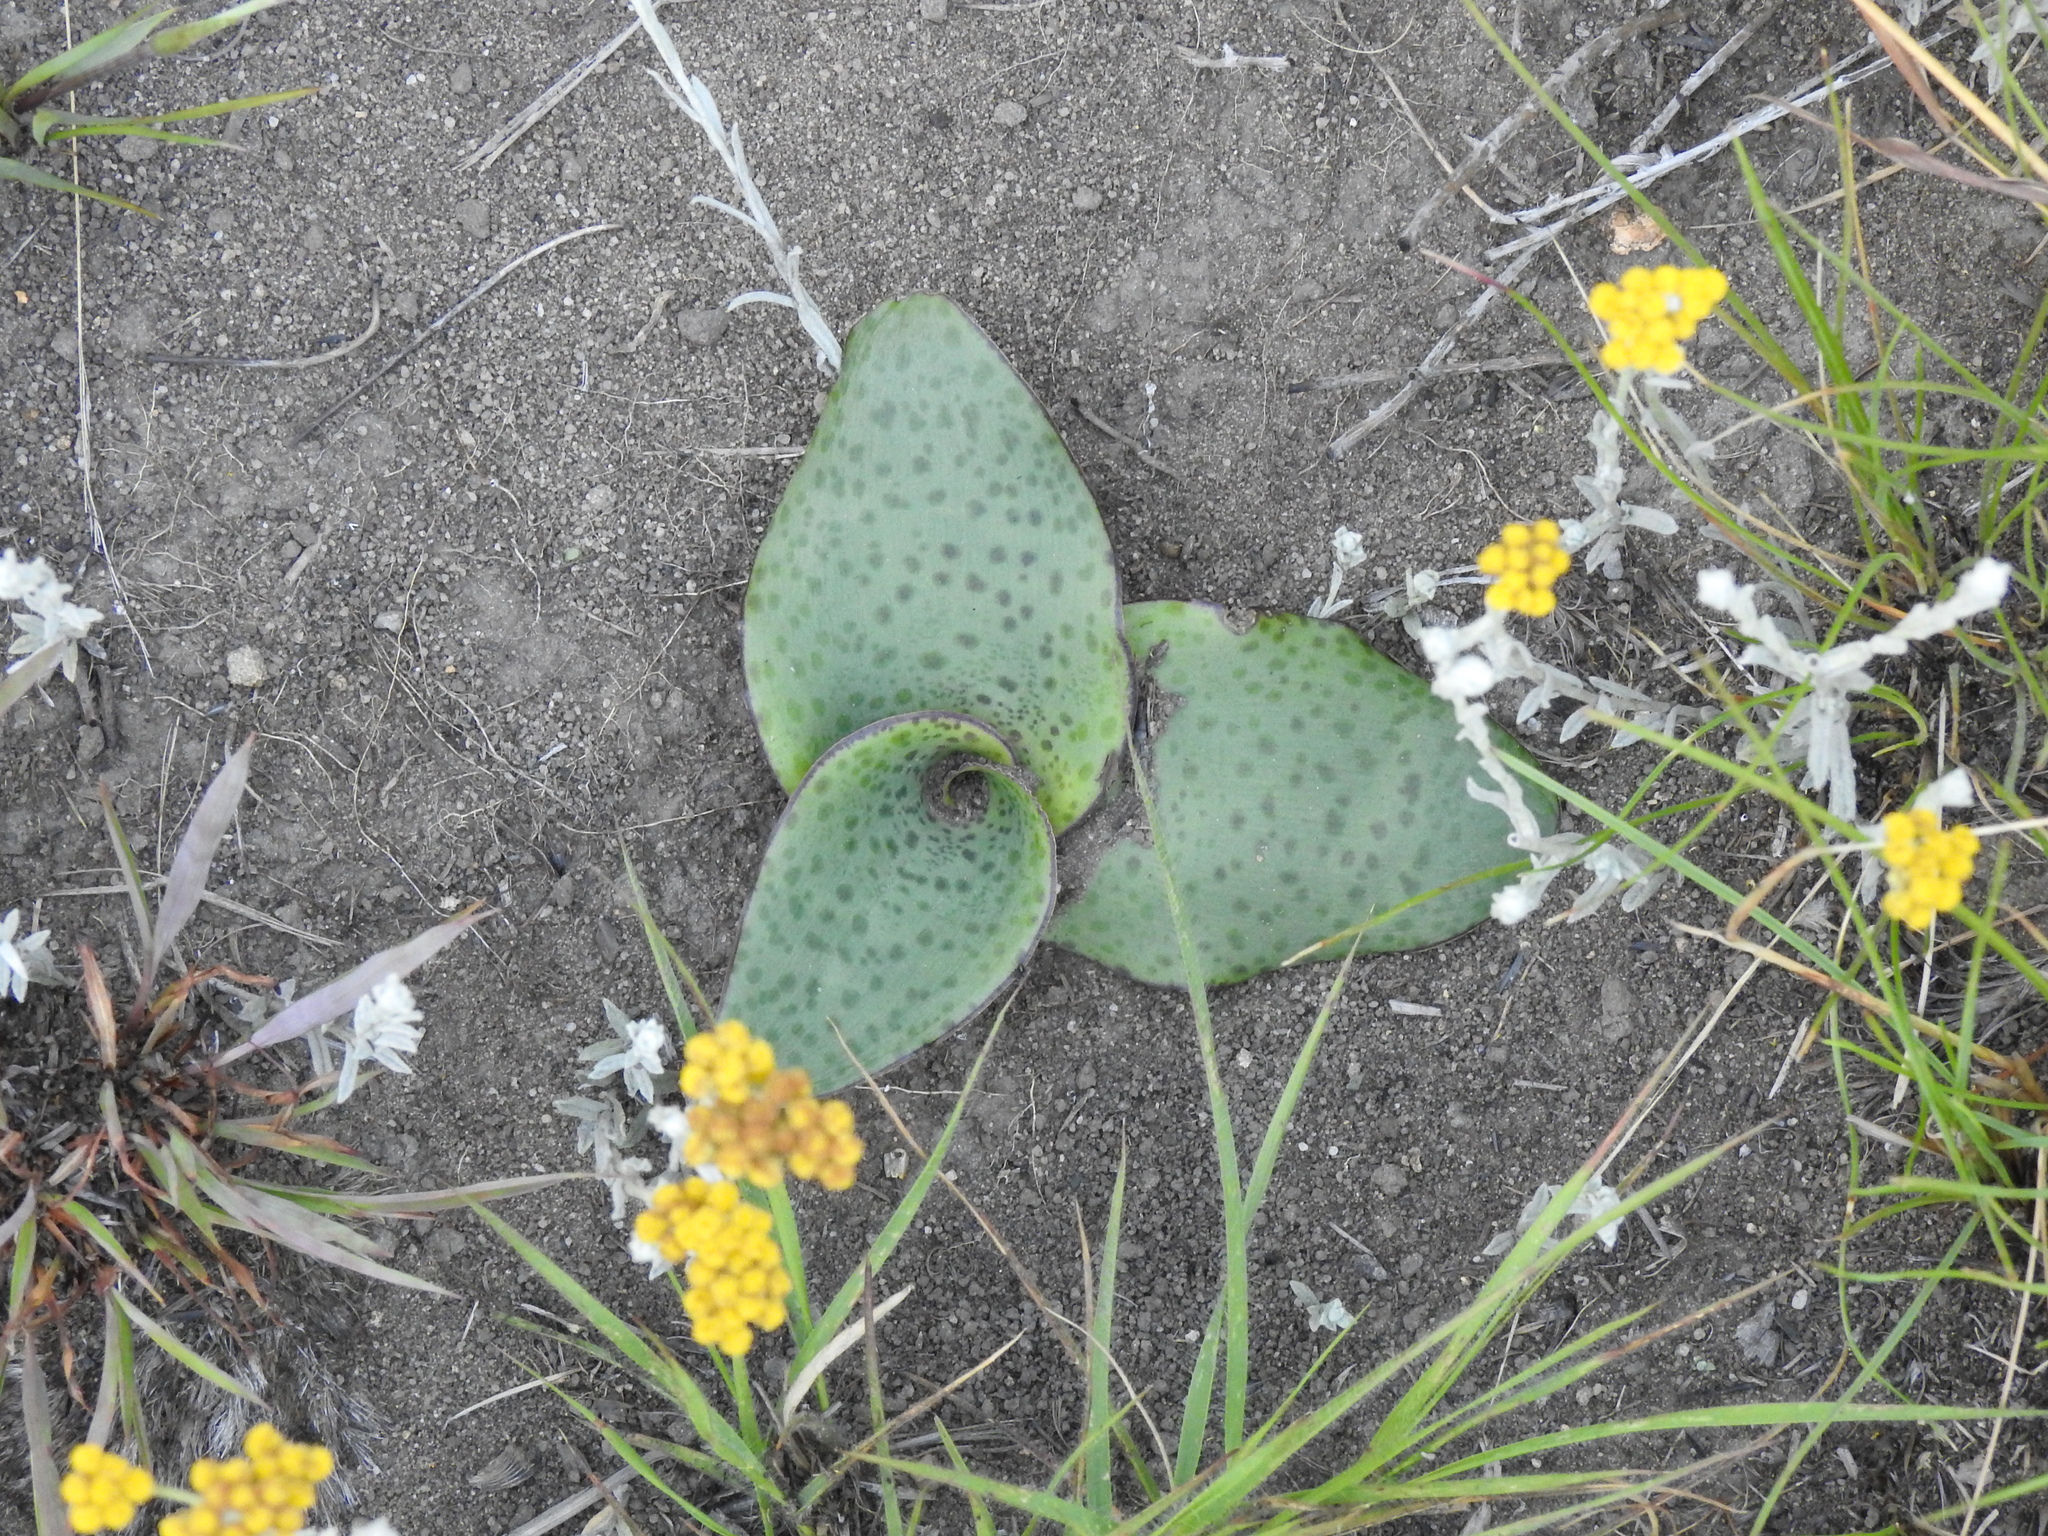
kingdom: Plantae
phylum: Tracheophyta
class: Liliopsida
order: Asparagales
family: Asparagaceae
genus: Ledebouria
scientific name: Ledebouria ovatifolia
